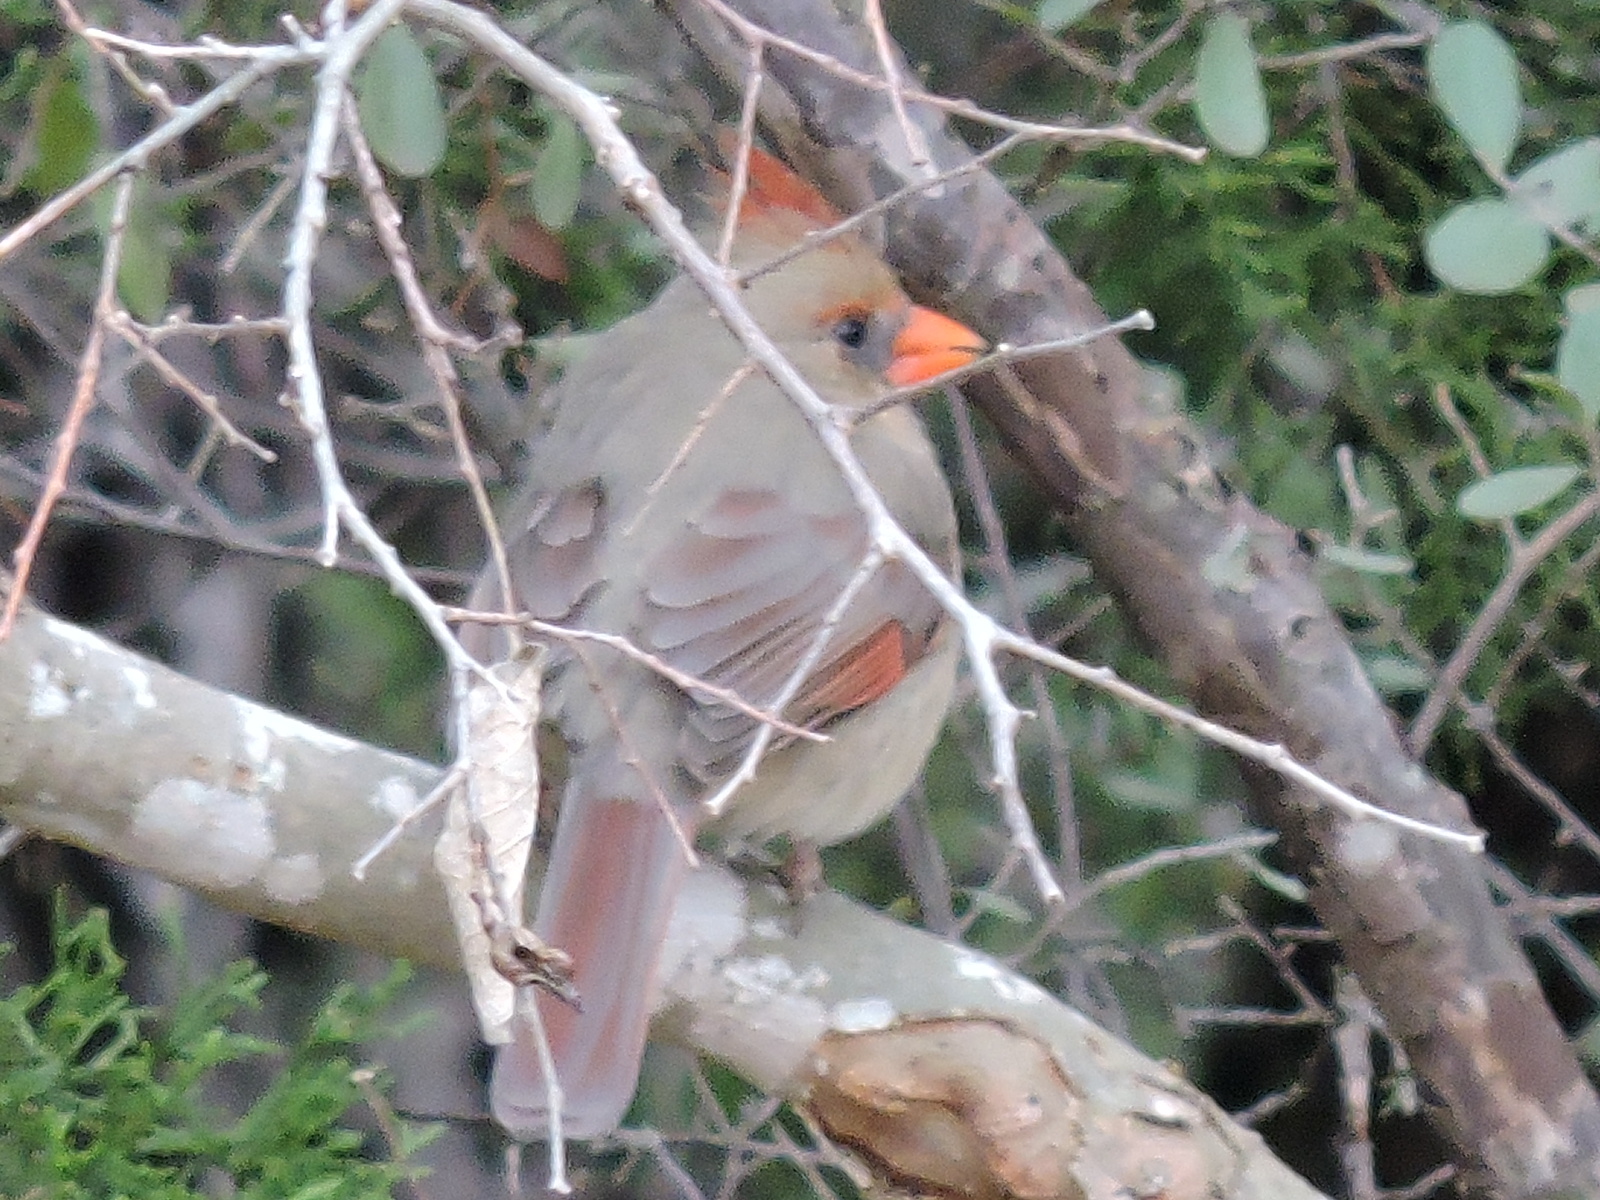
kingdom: Animalia
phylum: Chordata
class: Aves
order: Passeriformes
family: Cardinalidae
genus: Cardinalis
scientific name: Cardinalis cardinalis
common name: Northern cardinal
